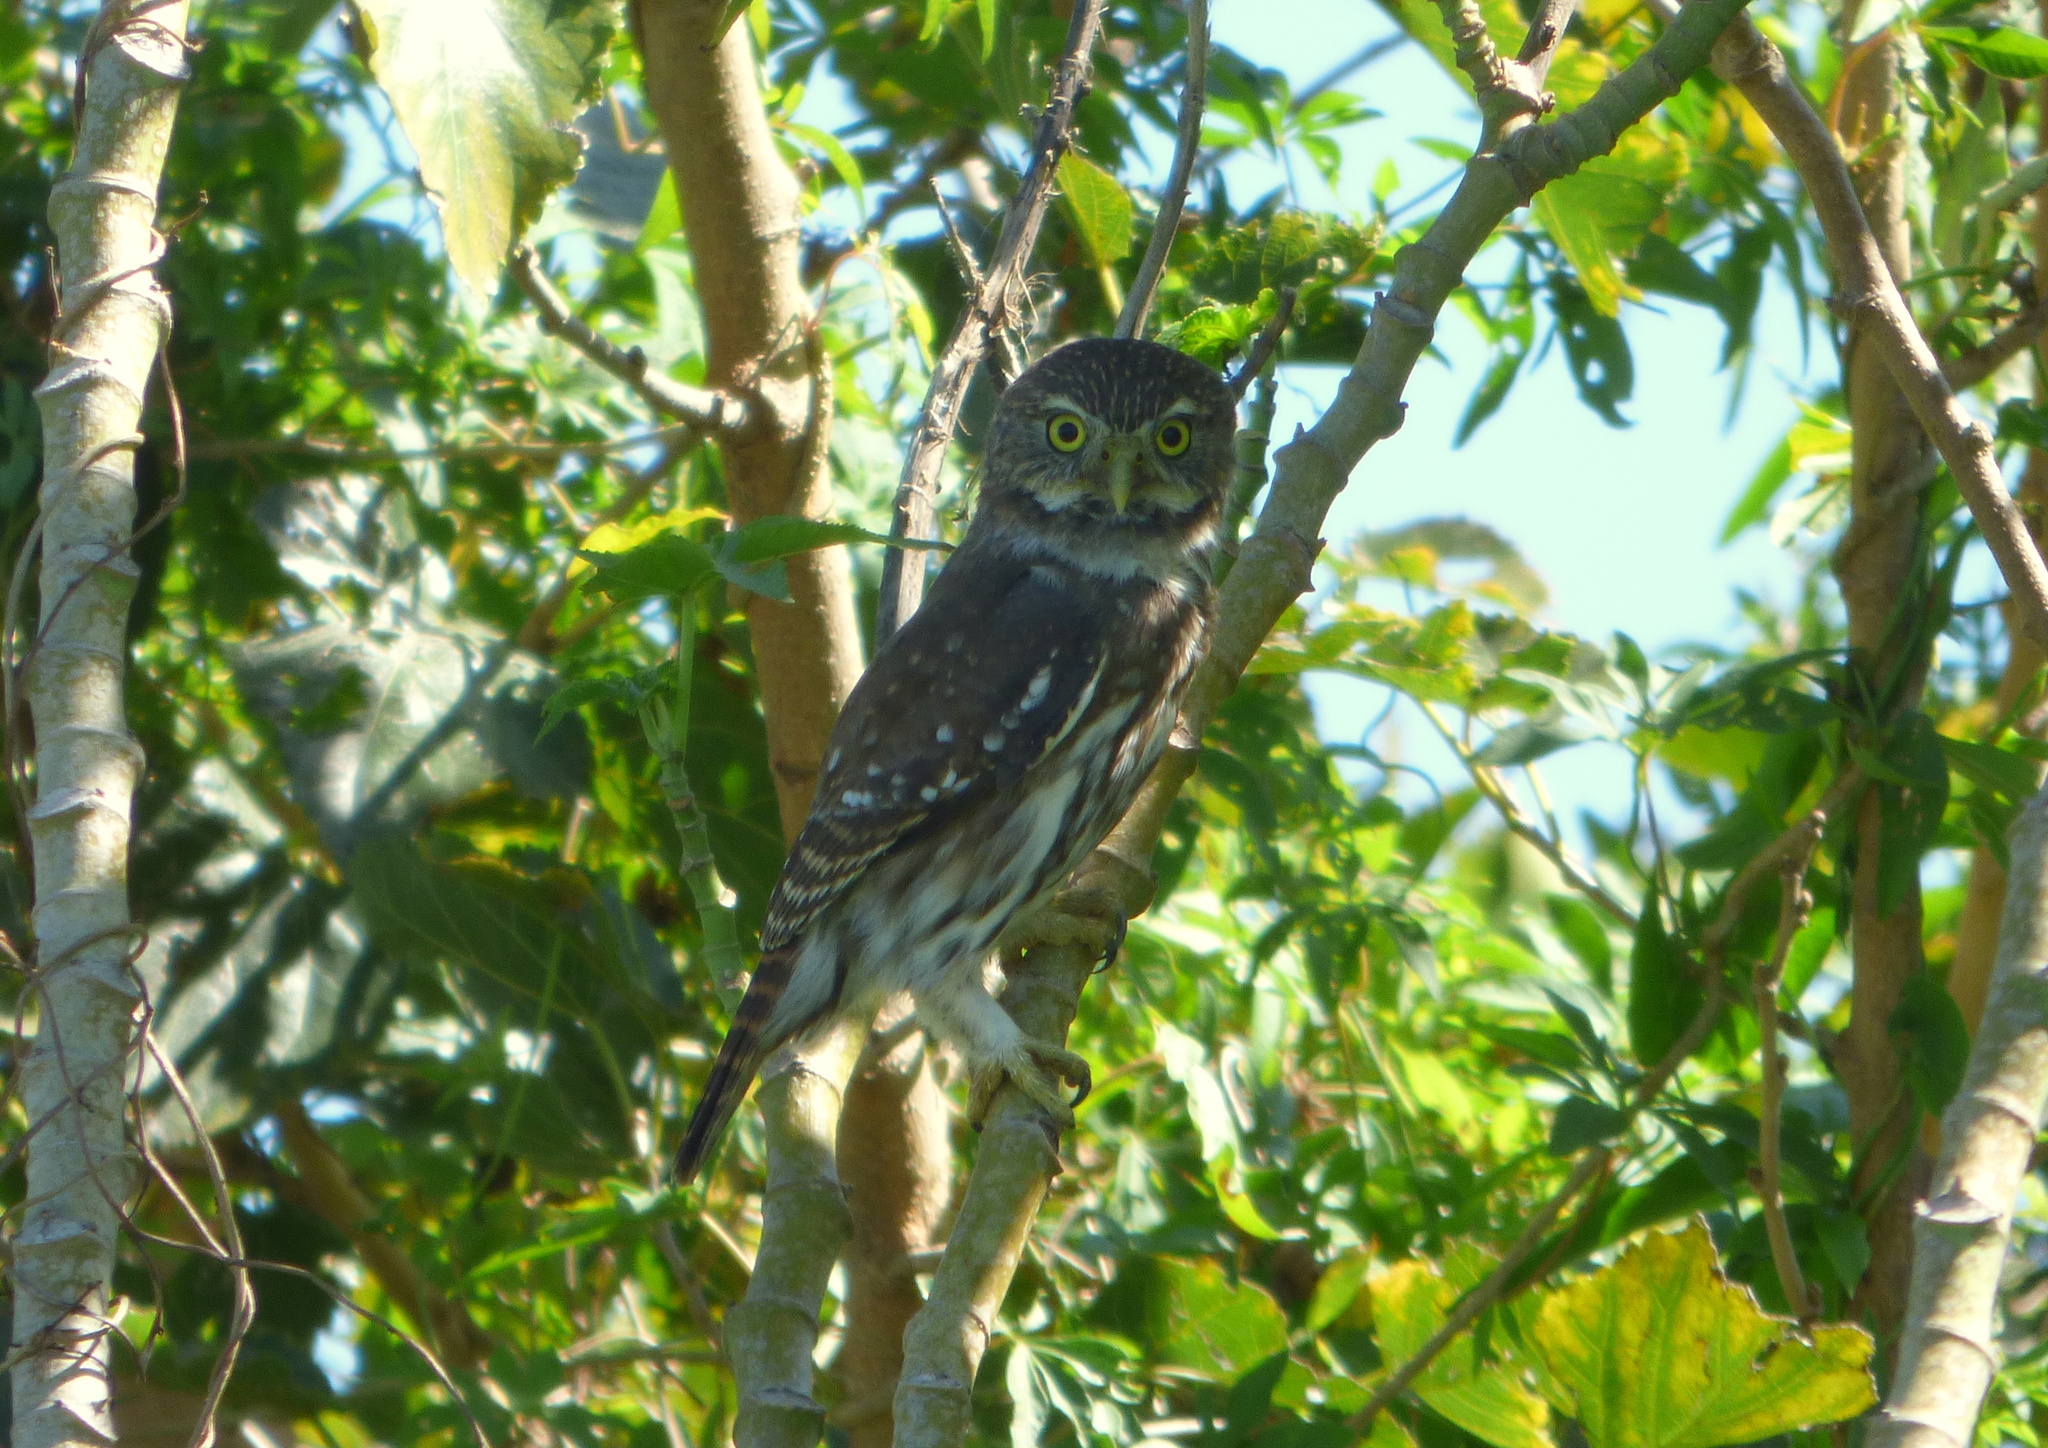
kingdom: Animalia
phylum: Chordata
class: Aves
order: Strigiformes
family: Strigidae
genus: Glaucidium
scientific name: Glaucidium brasilianum
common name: Ferruginous pygmy-owl
